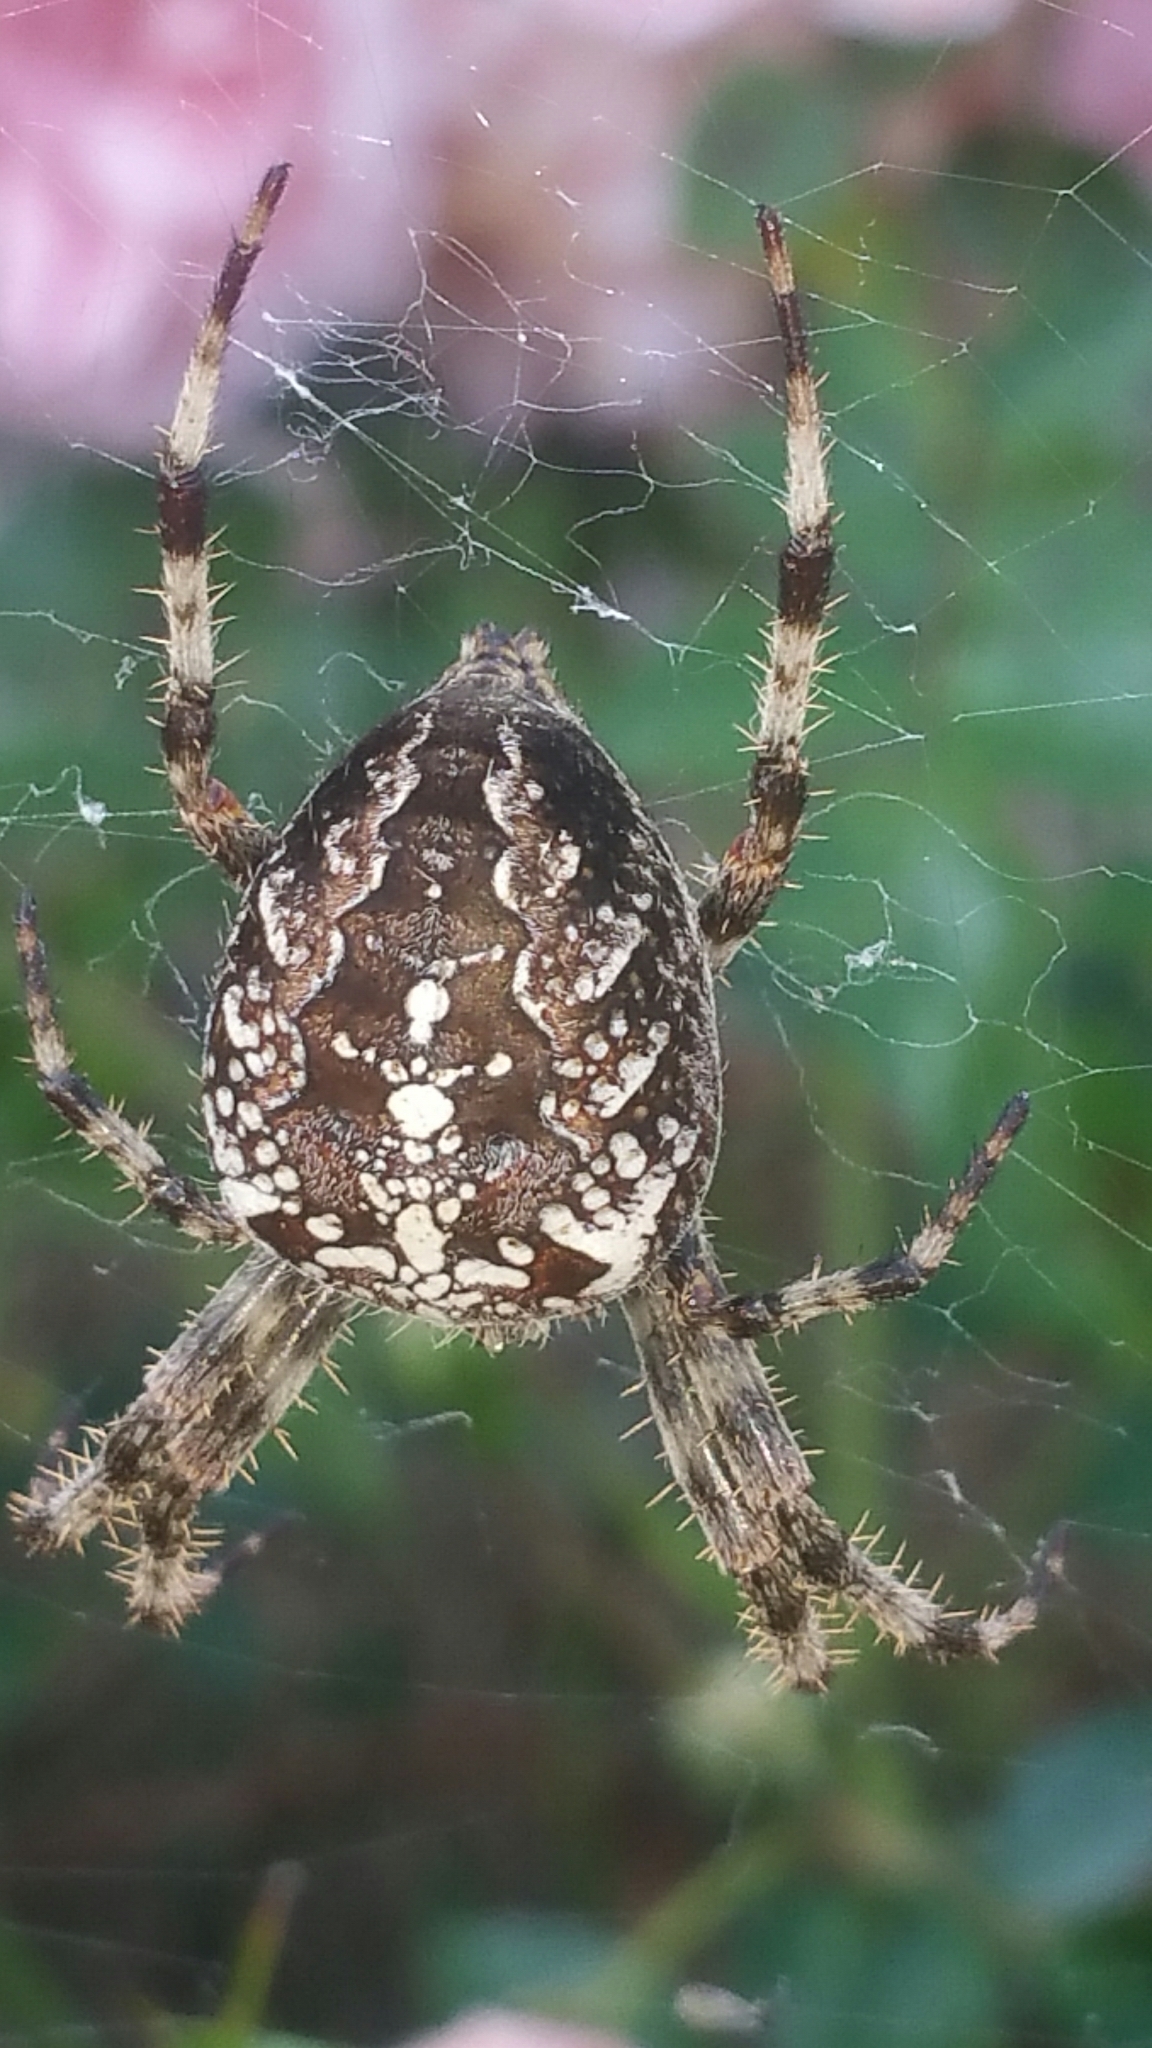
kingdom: Animalia
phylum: Arthropoda
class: Arachnida
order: Araneae
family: Araneidae
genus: Araneus
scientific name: Araneus diadematus
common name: Cross orbweaver
